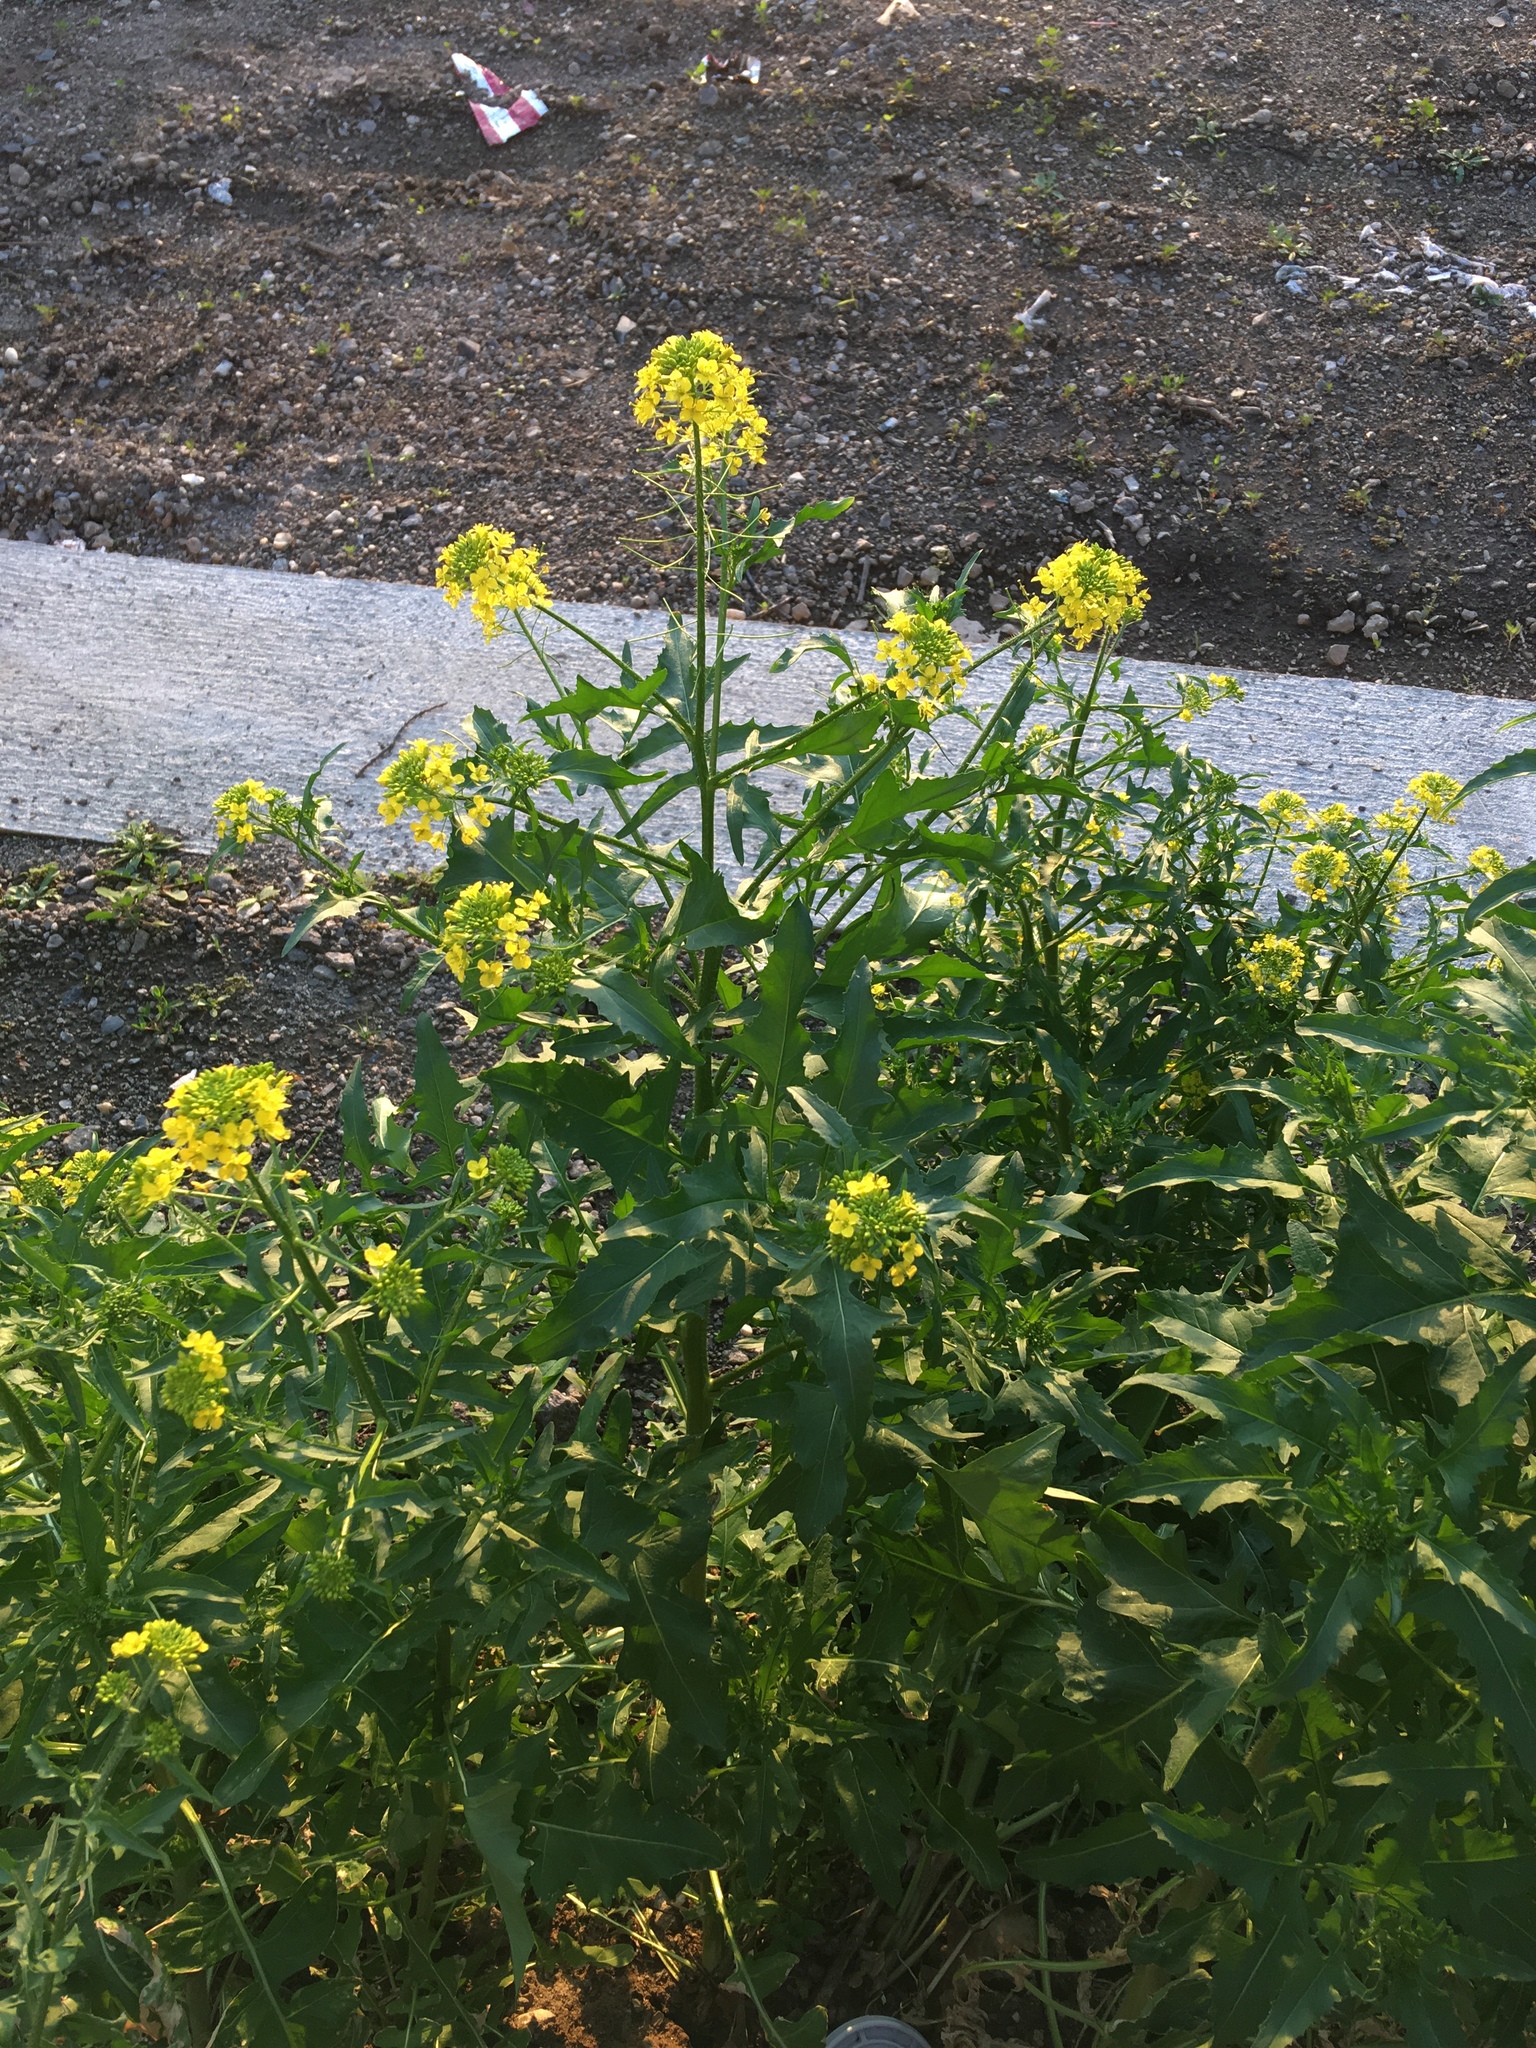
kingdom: Plantae
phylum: Tracheophyta
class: Magnoliopsida
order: Brassicales
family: Brassicaceae
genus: Sisymbrium
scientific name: Sisymbrium loeselii
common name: False london-rocket
